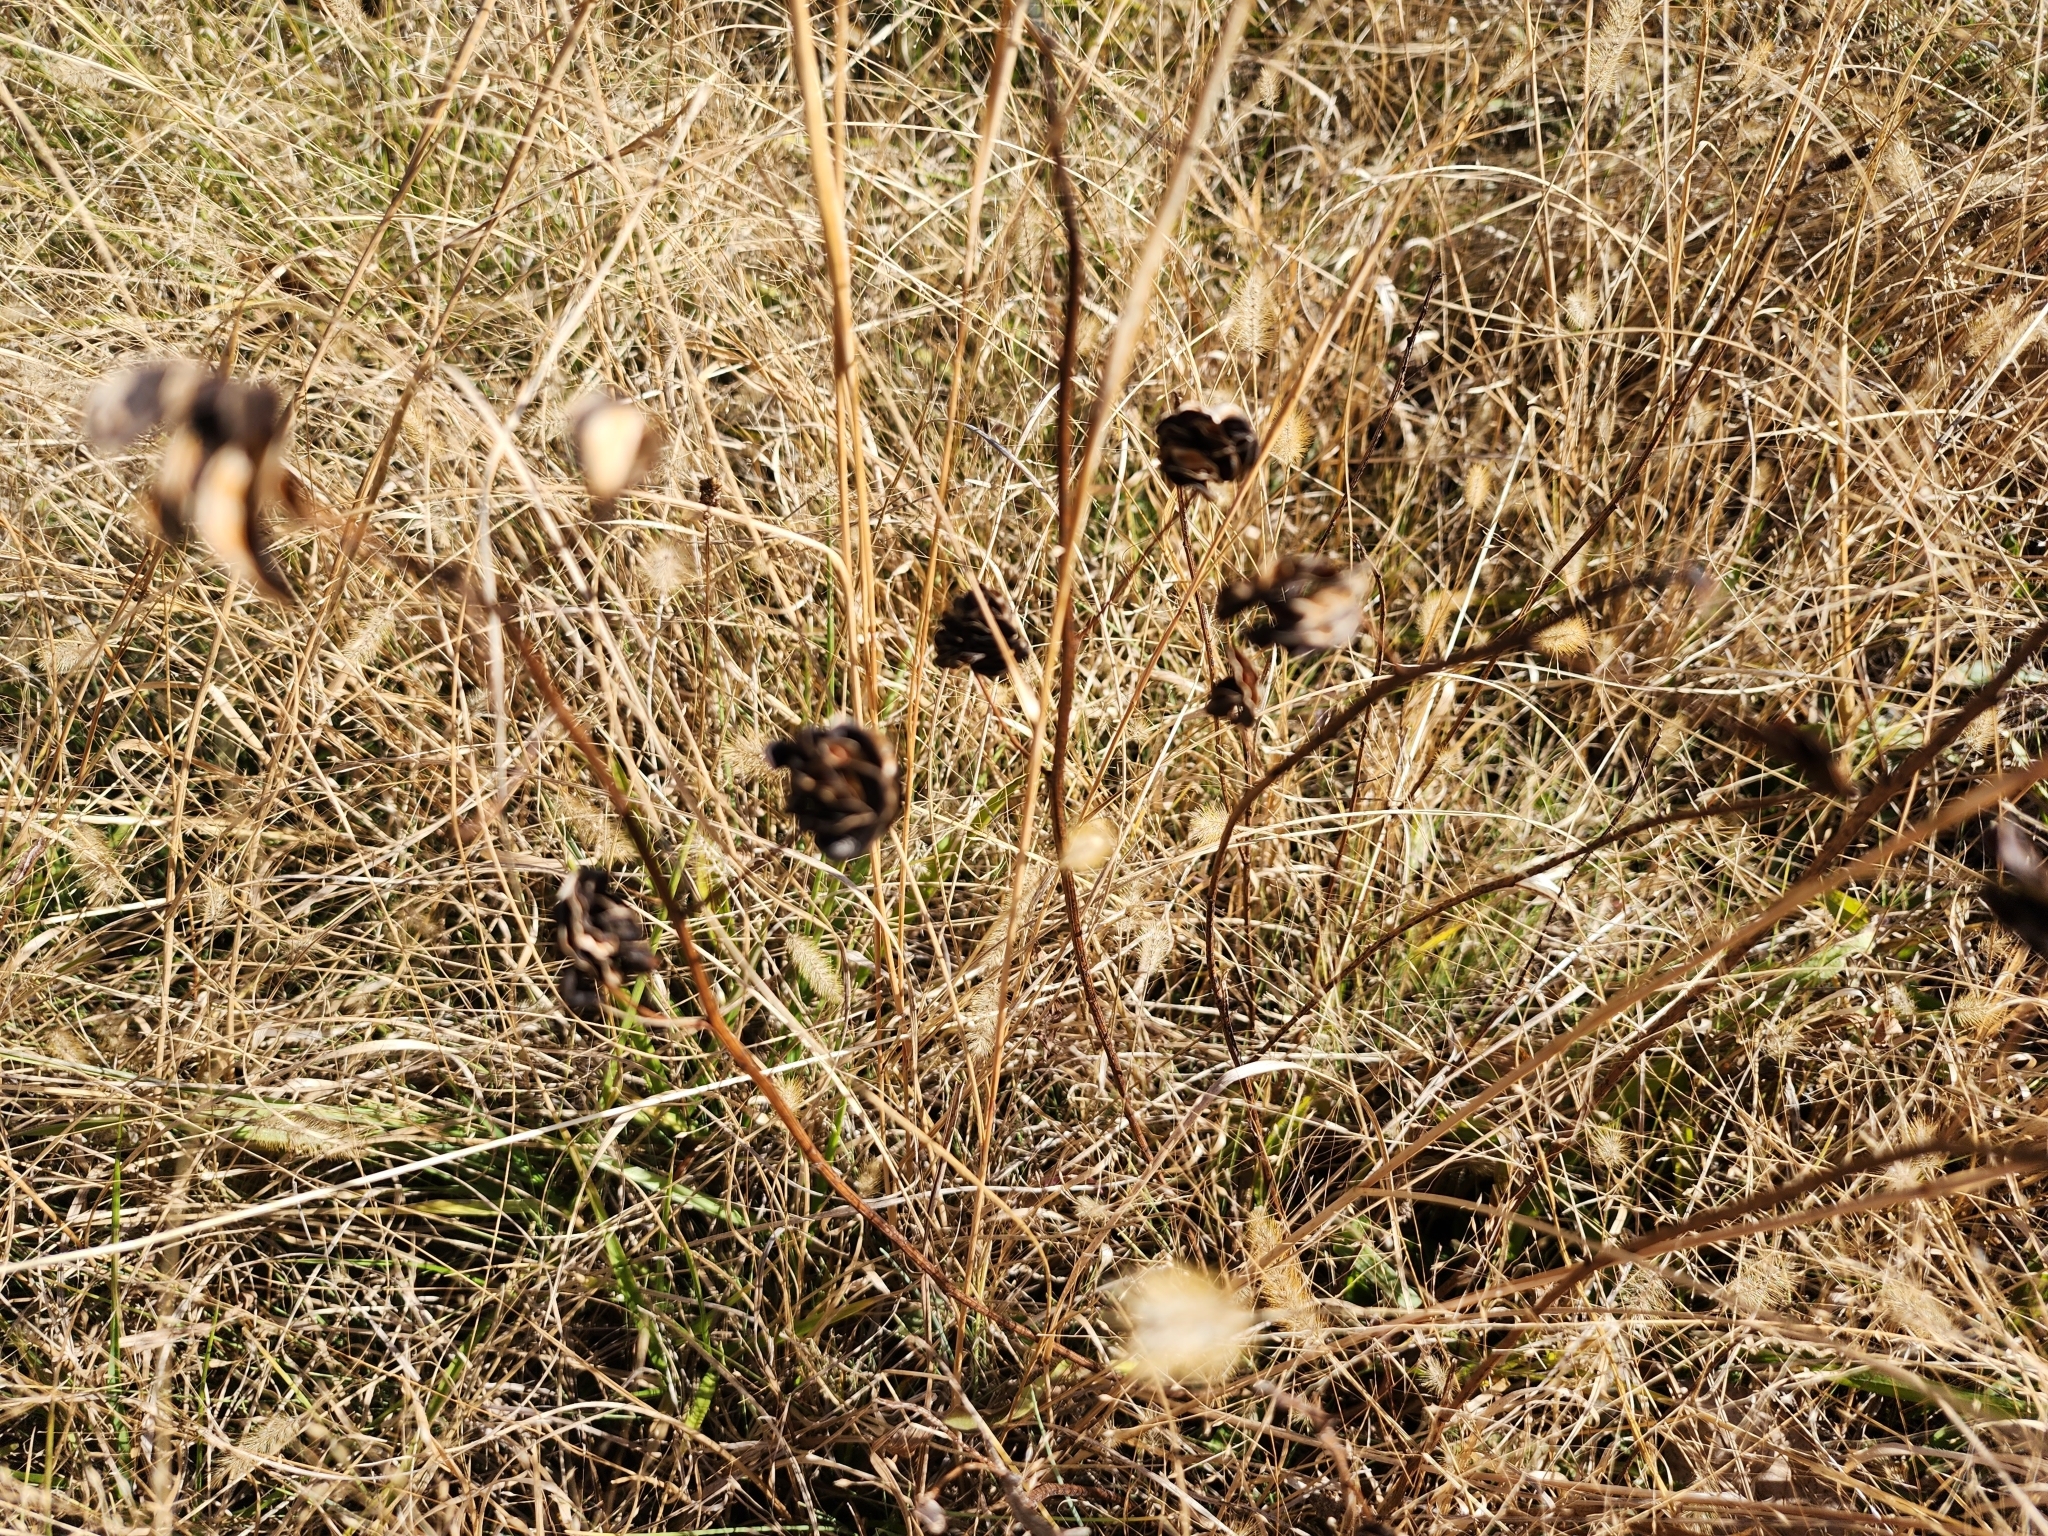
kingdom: Plantae
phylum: Tracheophyta
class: Magnoliopsida
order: Fabales
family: Fabaceae
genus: Desmanthus
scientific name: Desmanthus illinoensis
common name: Illinois bundle-flower
